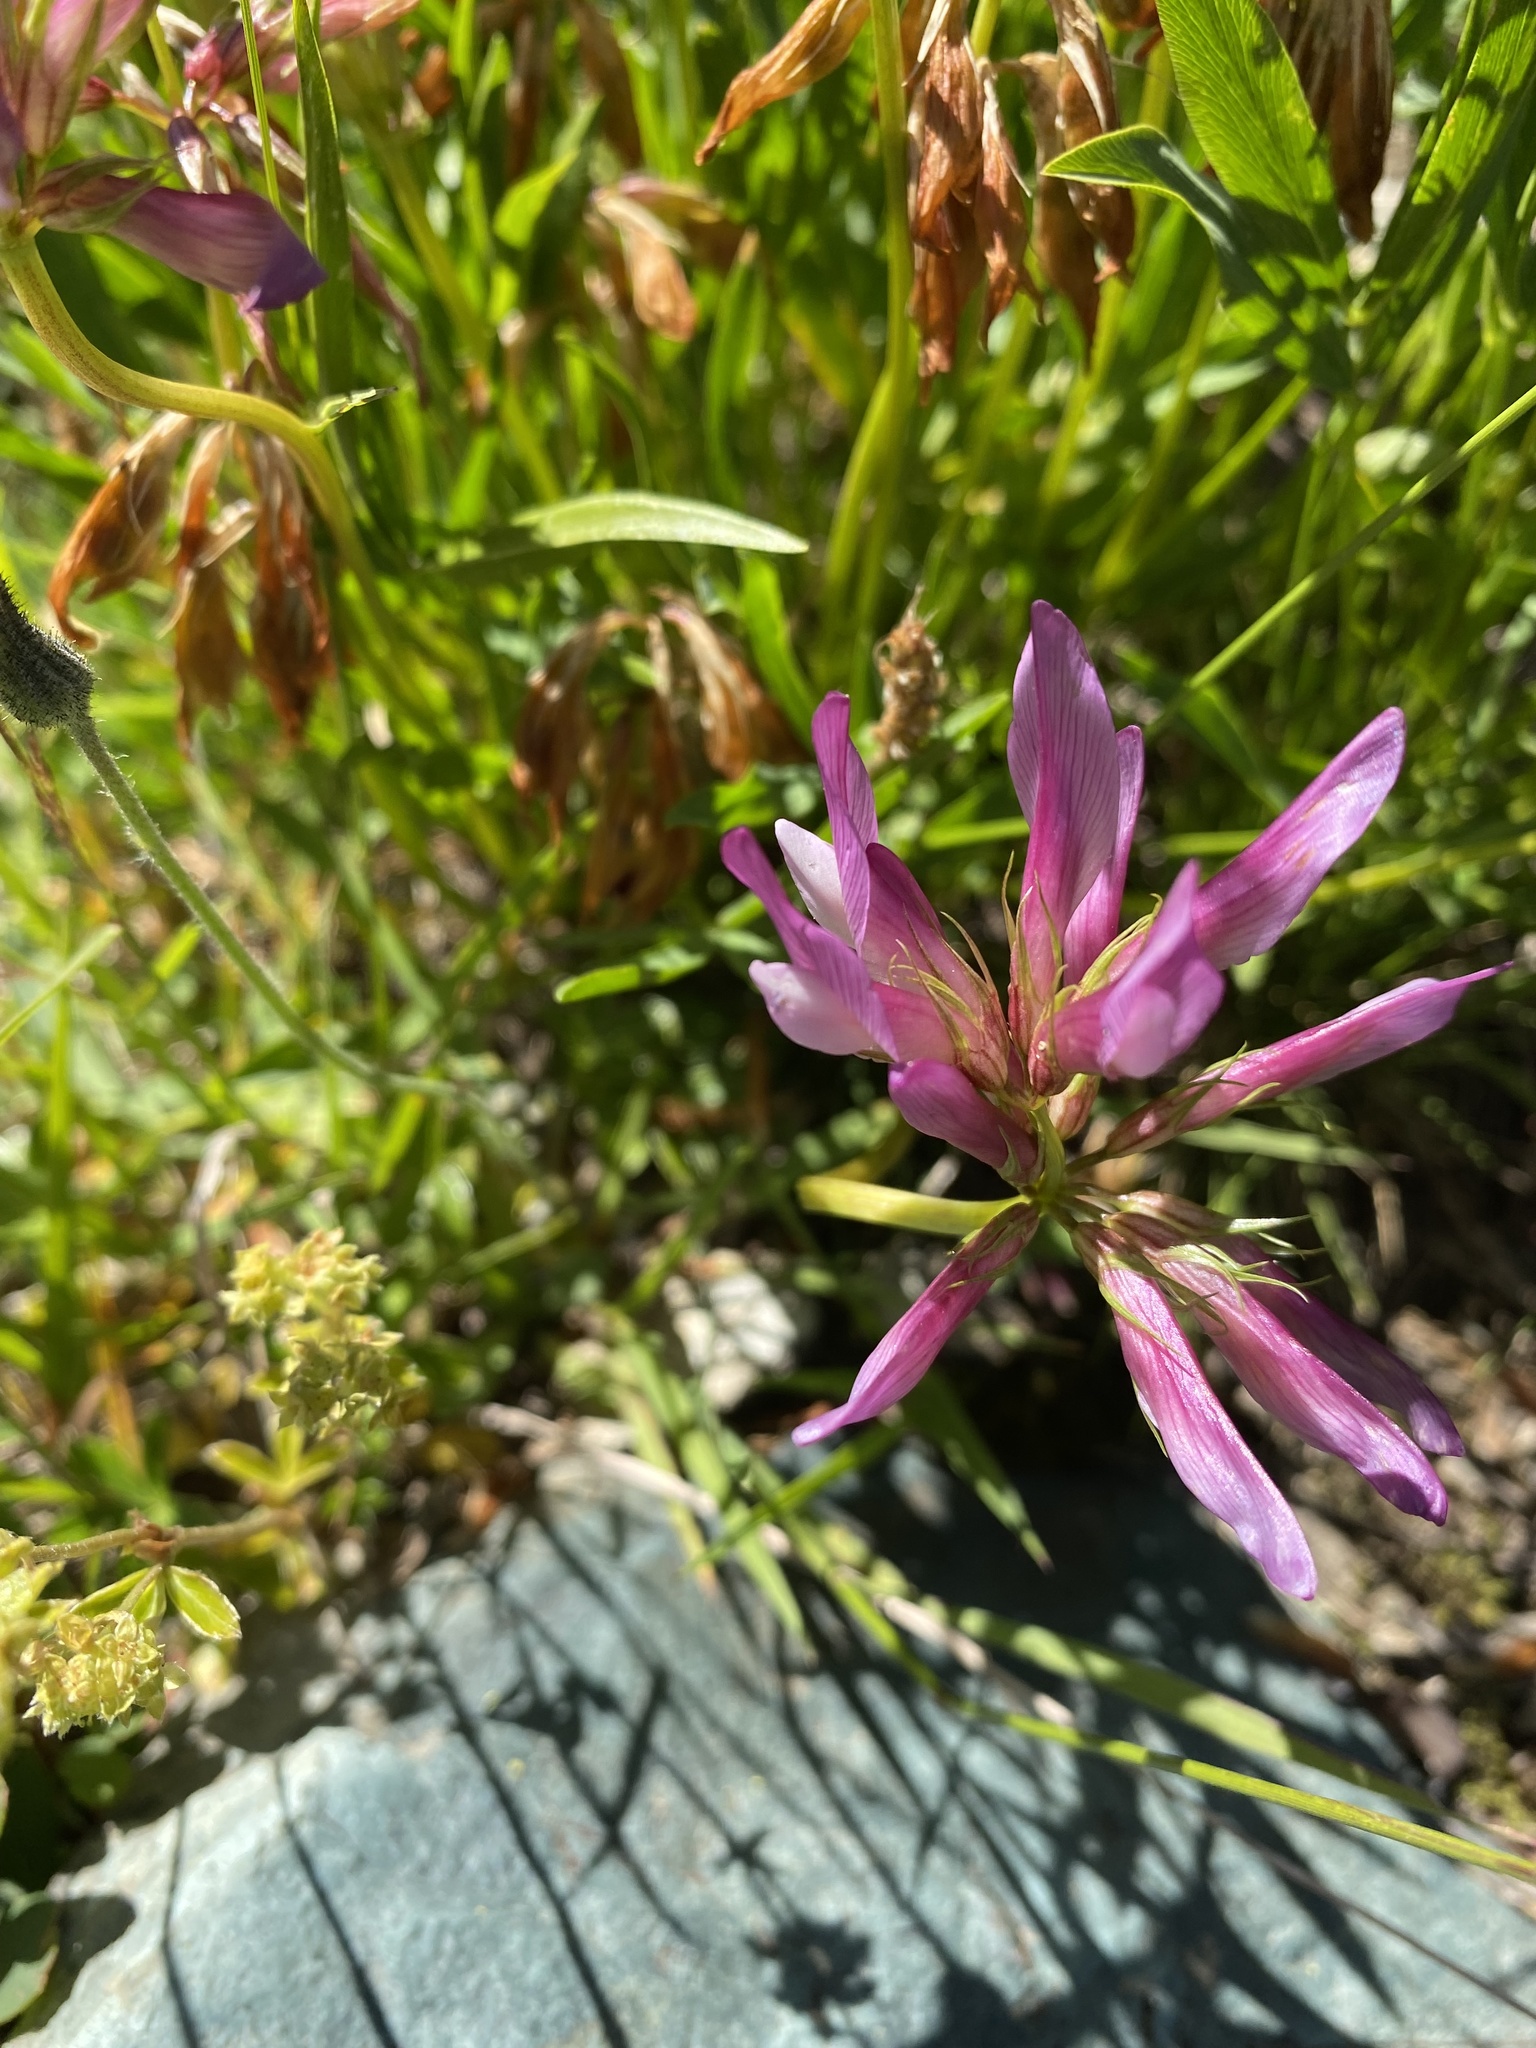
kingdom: Plantae
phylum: Tracheophyta
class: Magnoliopsida
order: Fabales
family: Fabaceae
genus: Trifolium
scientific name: Trifolium alpinum
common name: Alpine clover
